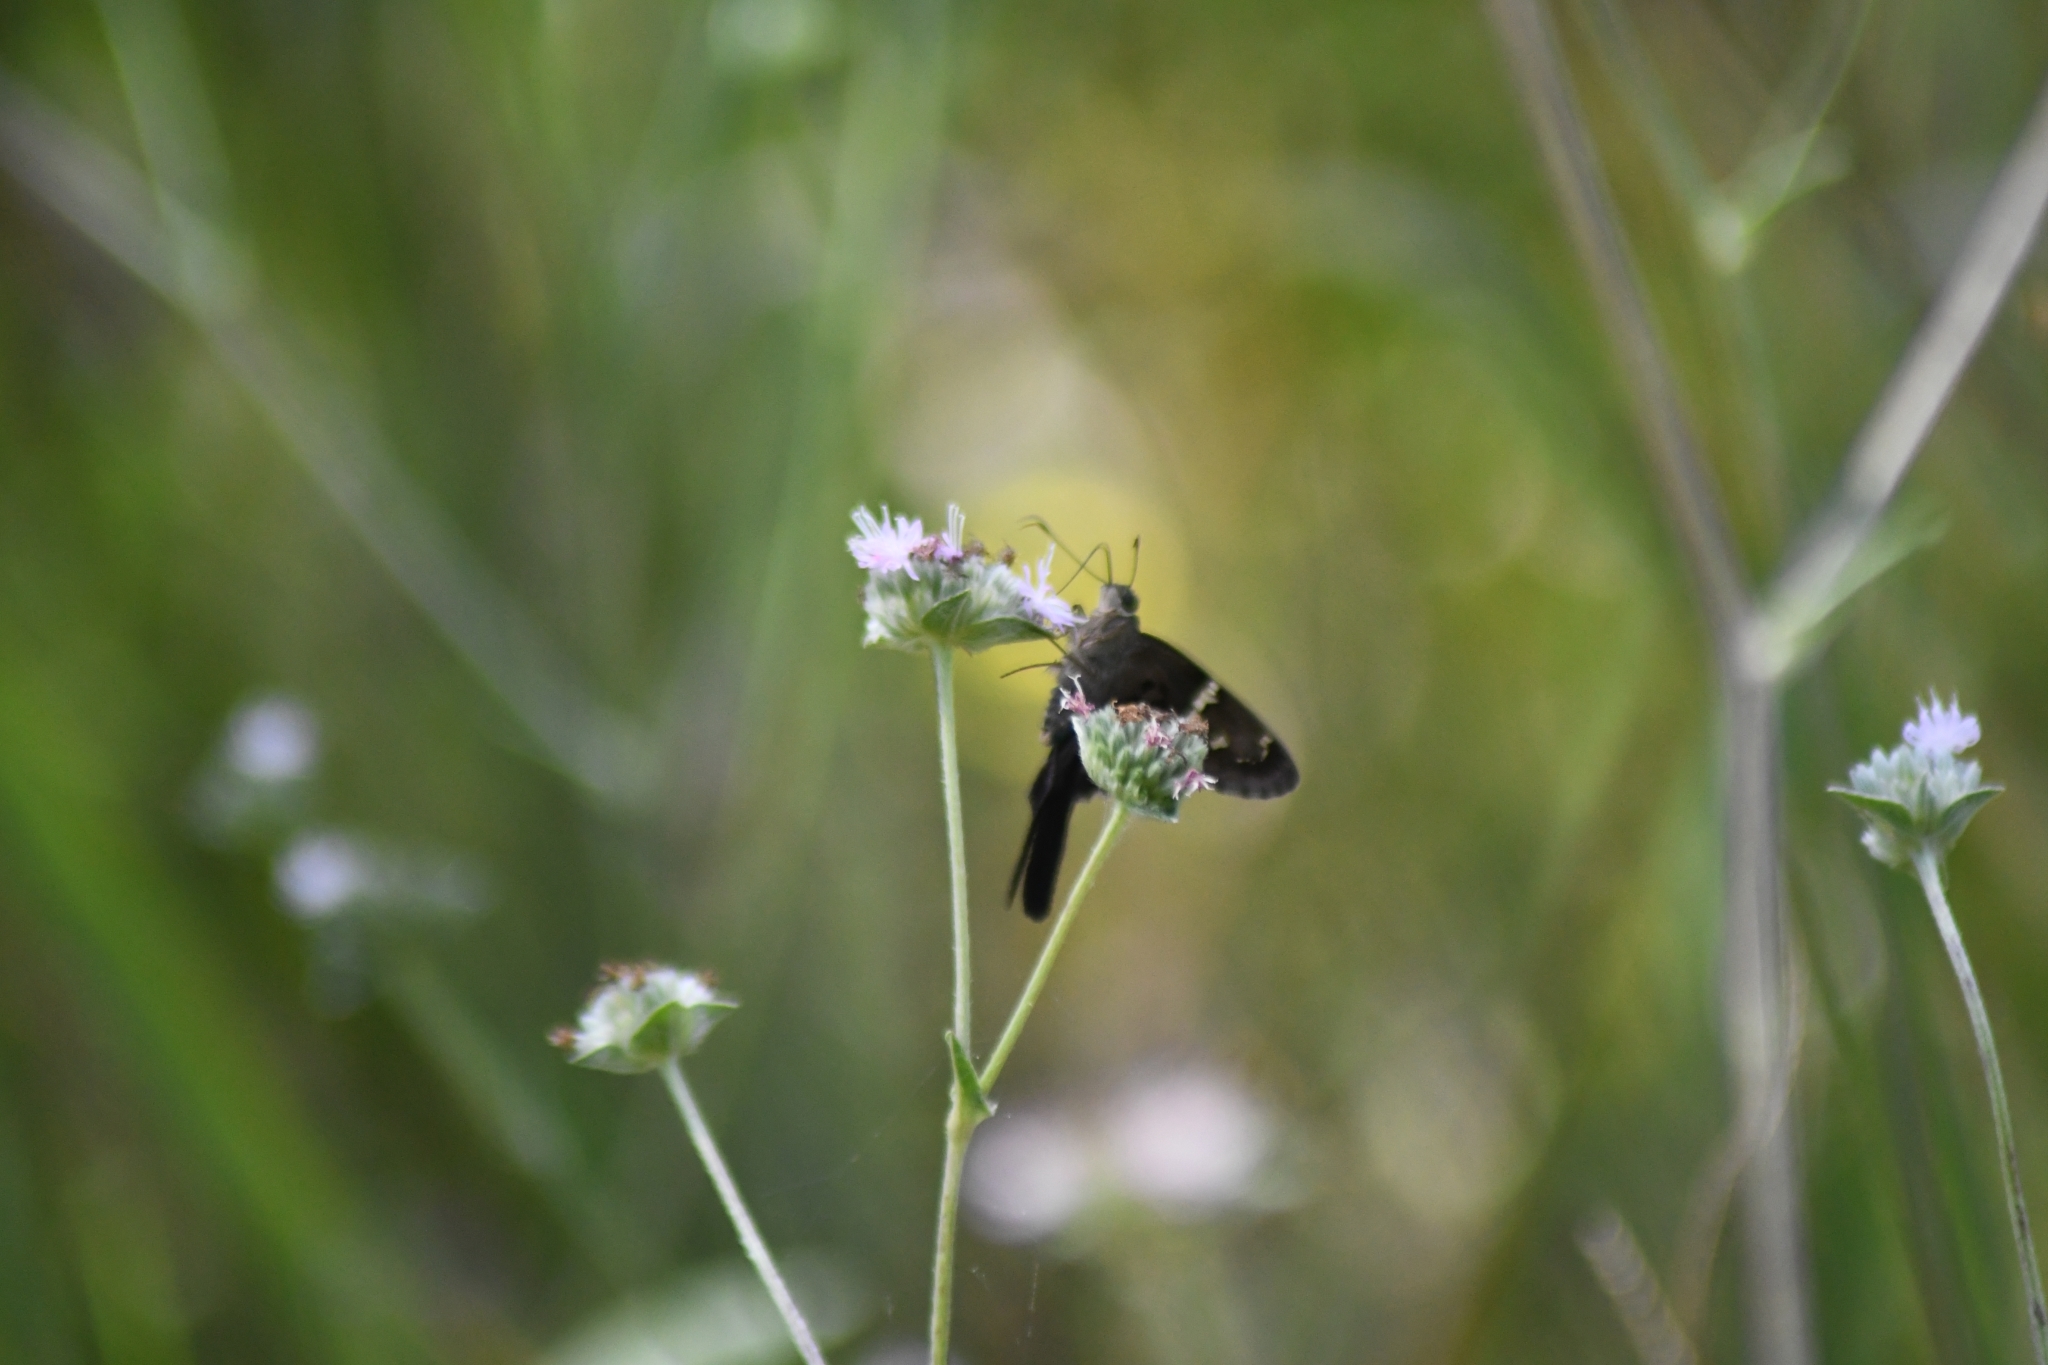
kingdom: Animalia
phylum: Arthropoda
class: Insecta
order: Lepidoptera
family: Hesperiidae
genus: Urbanus
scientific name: Urbanus proteus
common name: Long-tailed skipper
